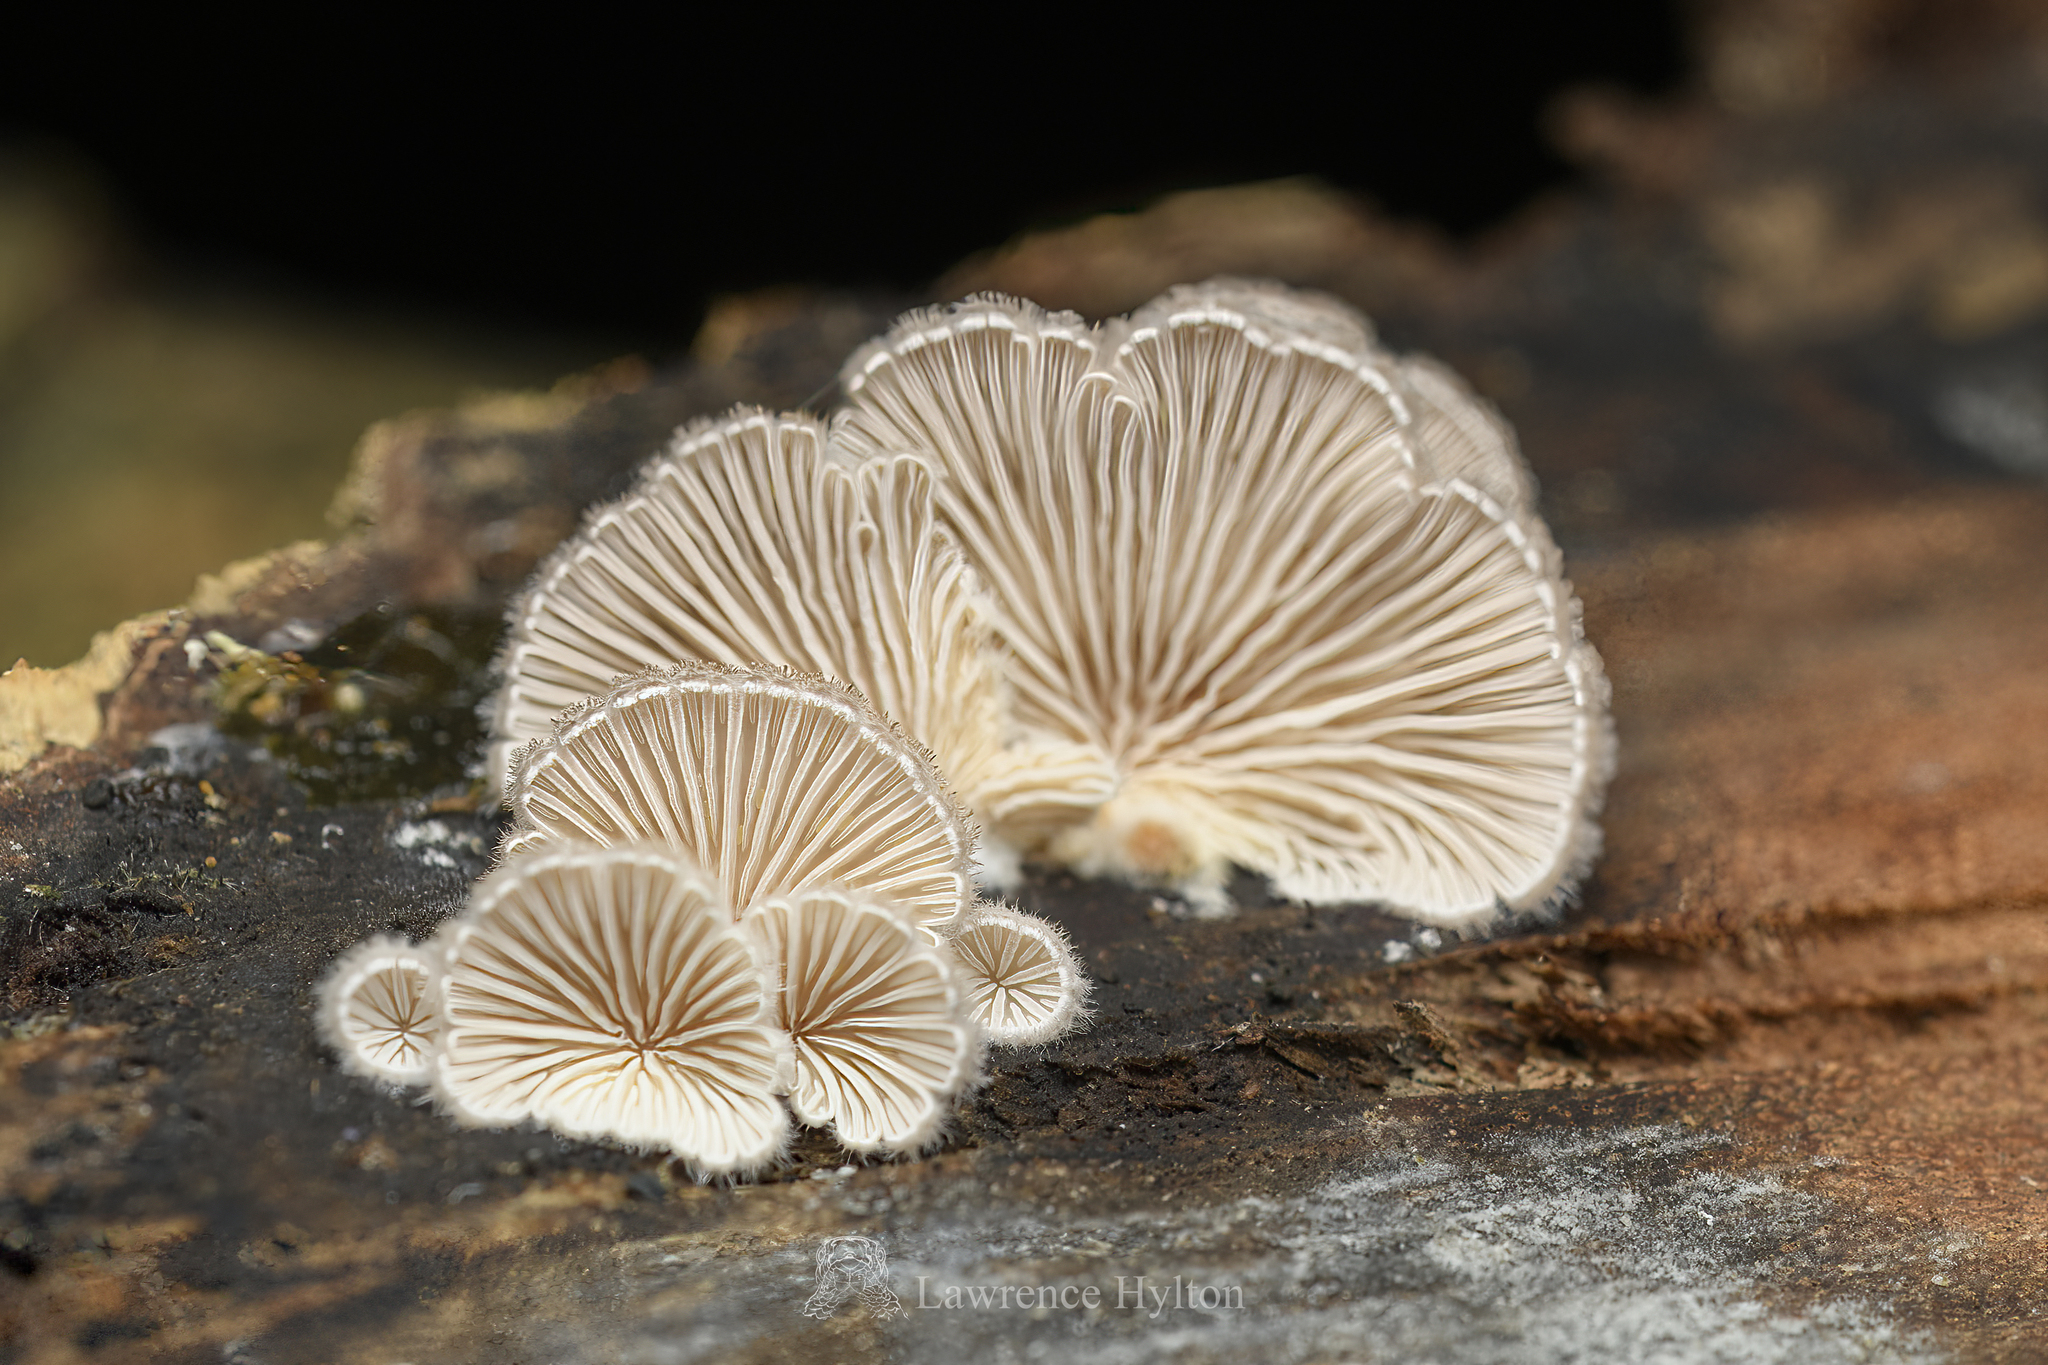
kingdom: Fungi
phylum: Basidiomycota
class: Agaricomycetes
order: Agaricales
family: Schizophyllaceae
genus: Schizophyllum
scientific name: Schizophyllum commune
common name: Common porecrust
